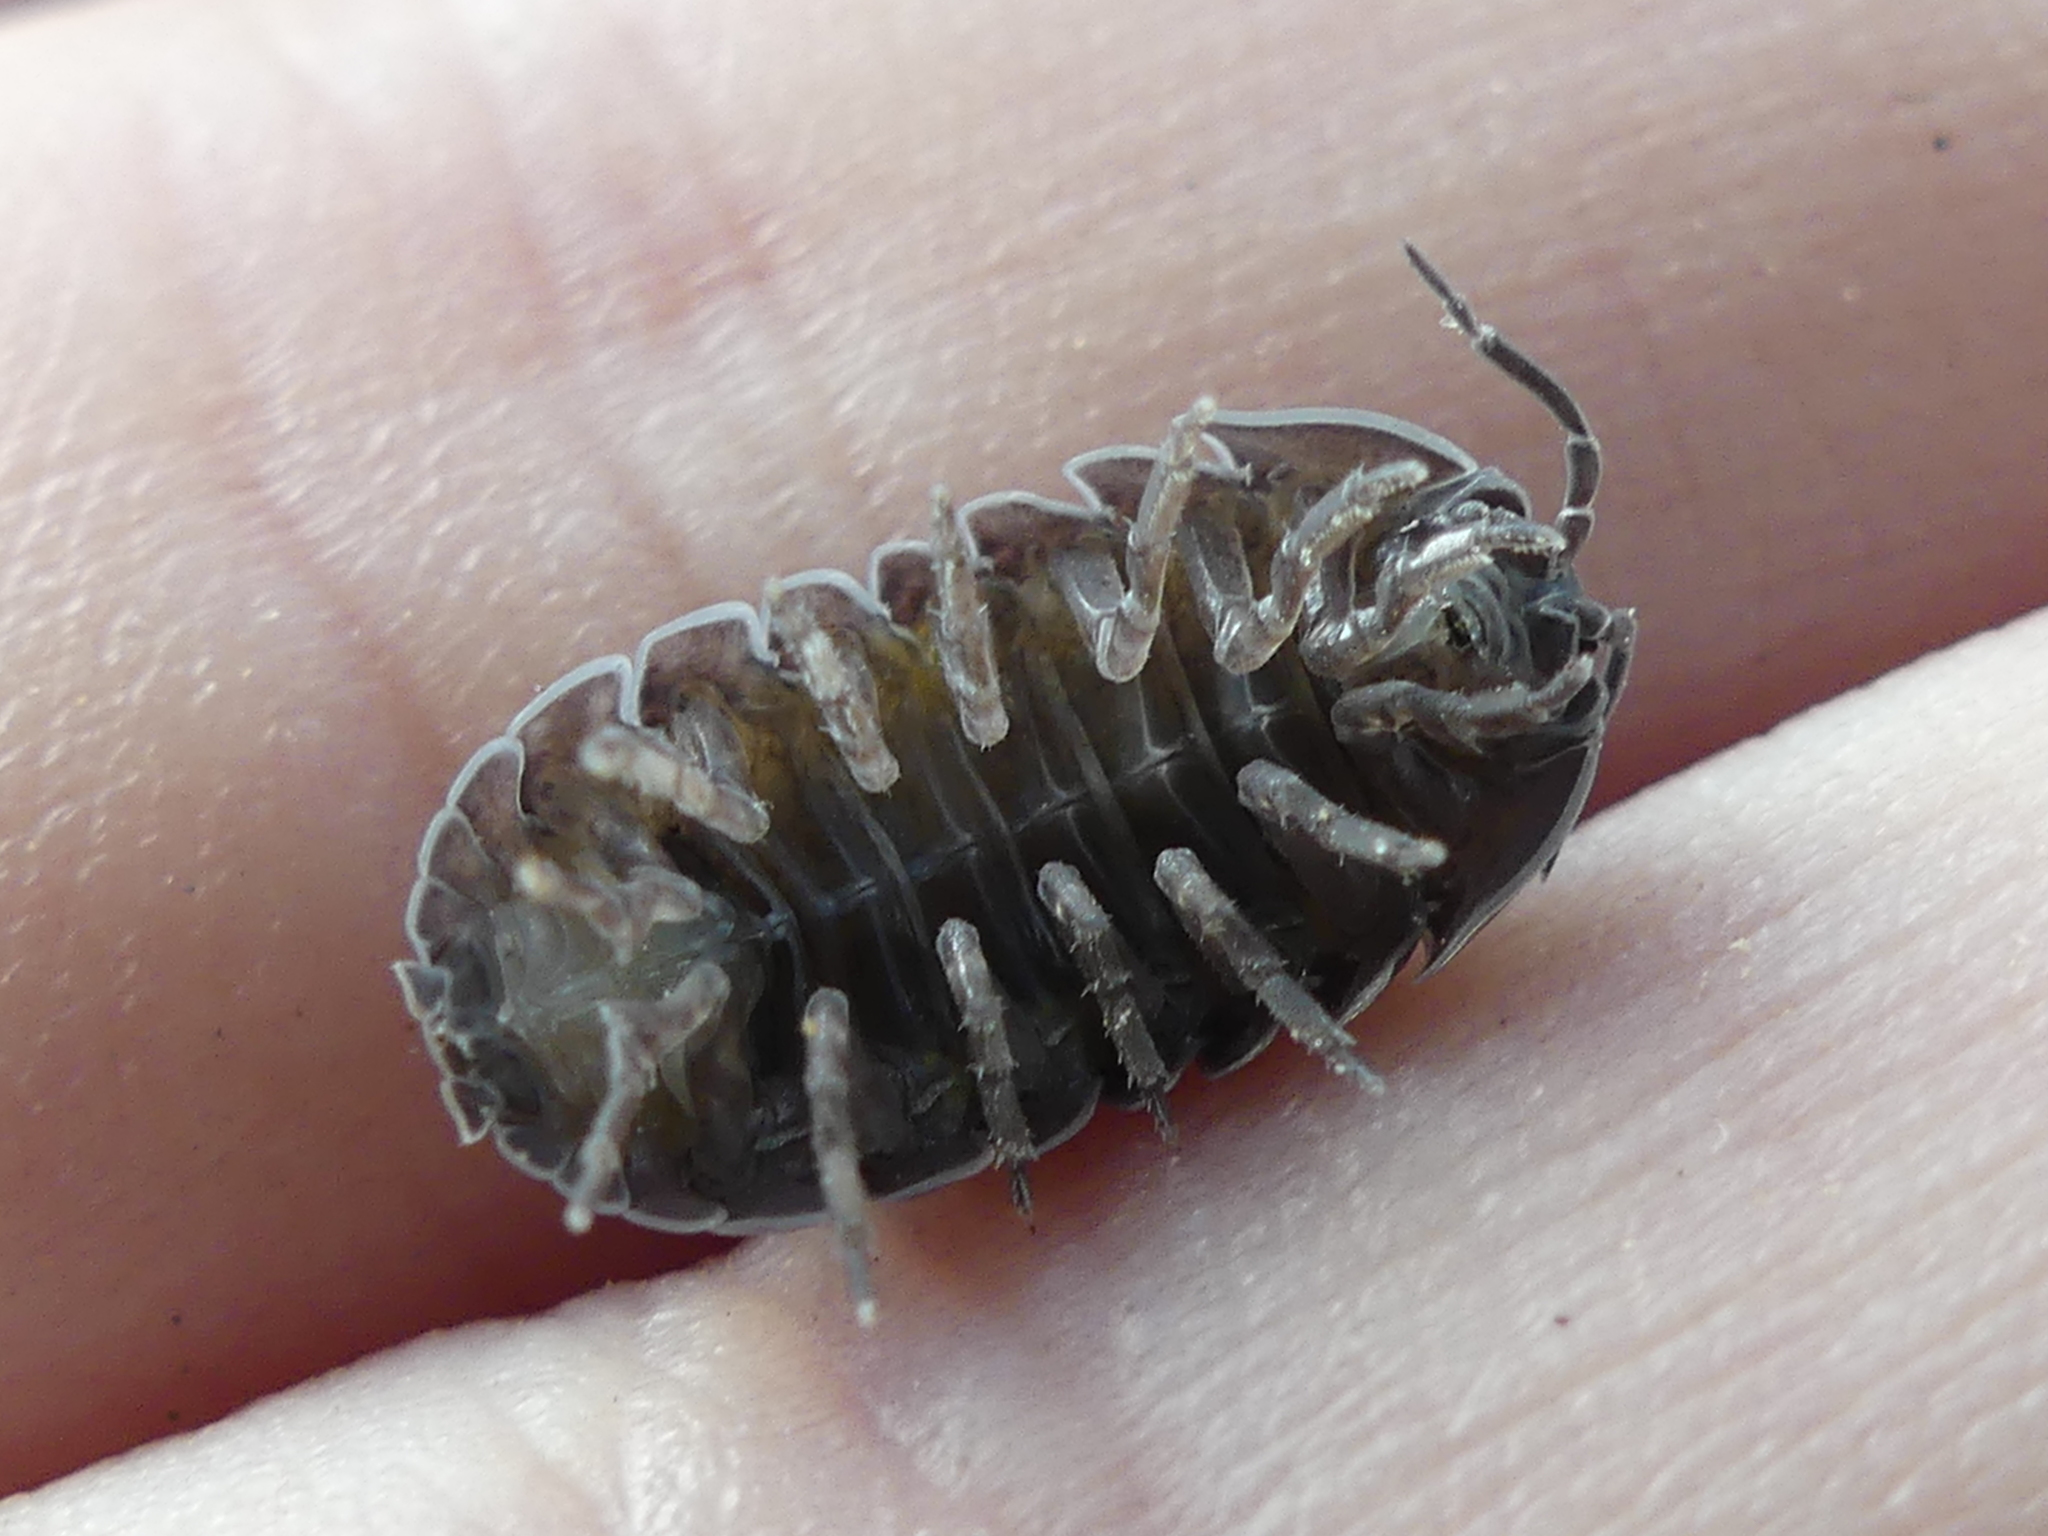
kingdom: Animalia
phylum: Arthropoda
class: Malacostraca
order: Isopoda
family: Armadillidiidae
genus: Armadillidium
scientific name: Armadillidium vulgare
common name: Common pill woodlouse
